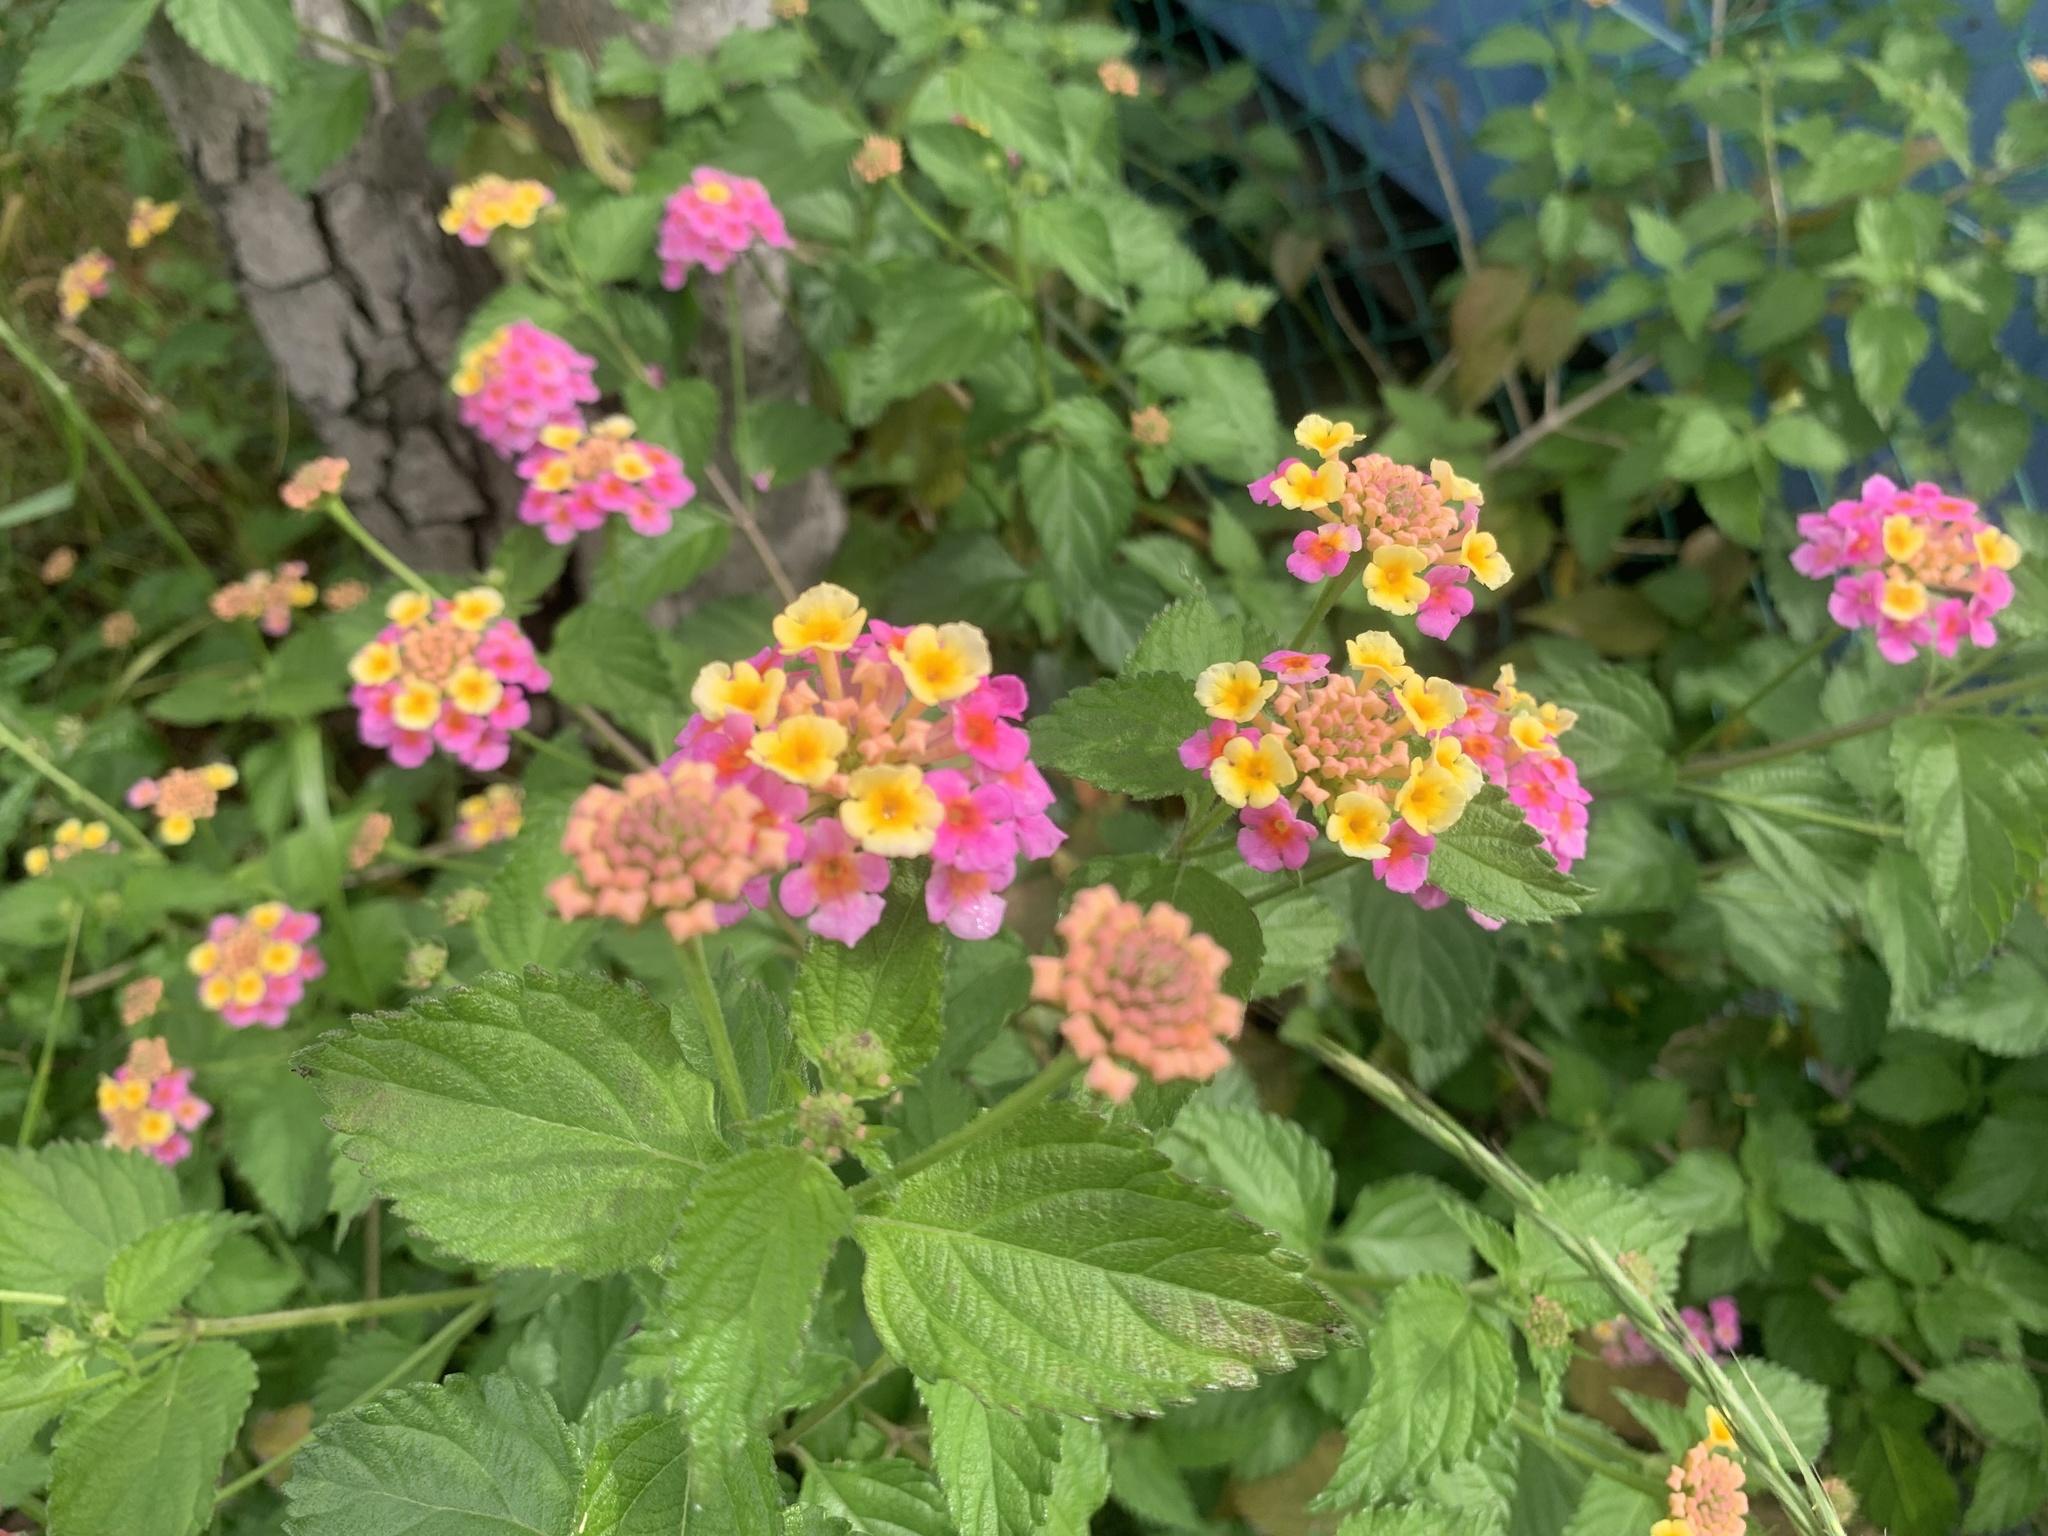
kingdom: Plantae
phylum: Tracheophyta
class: Magnoliopsida
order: Lamiales
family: Verbenaceae
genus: Lantana
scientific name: Lantana camara
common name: Lantana
